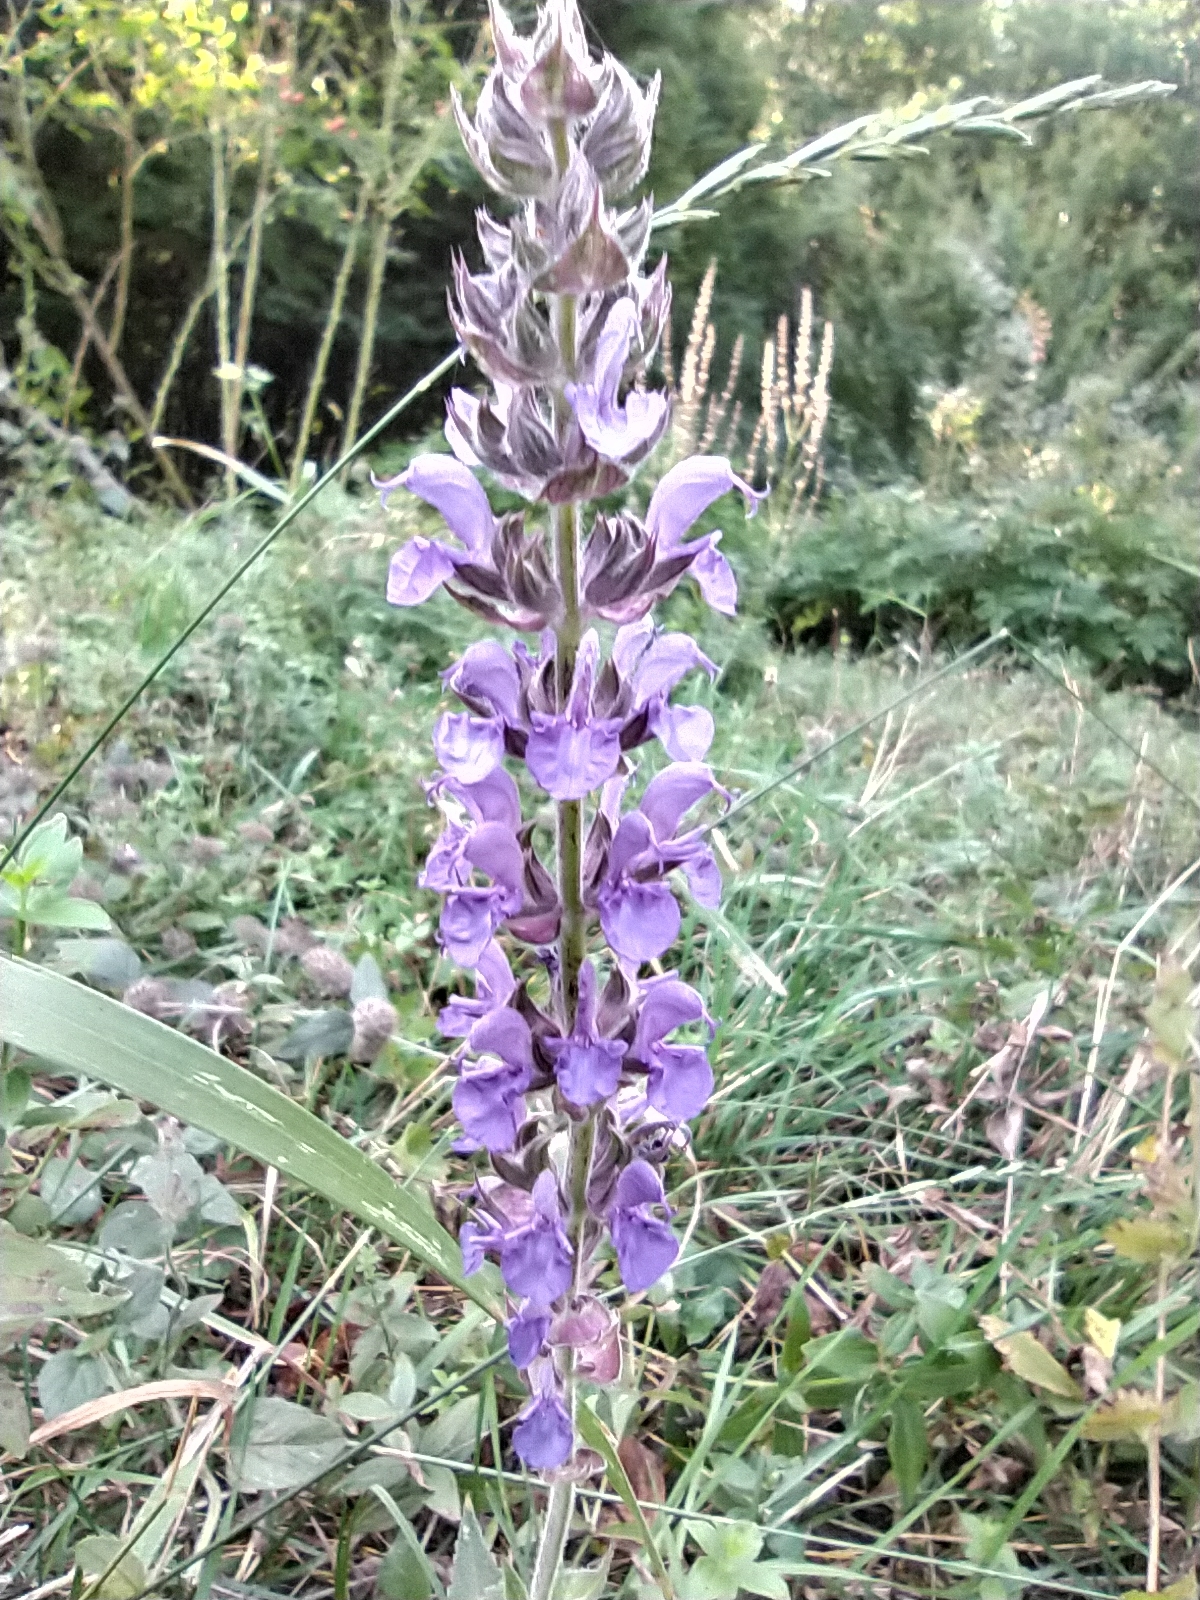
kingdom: Plantae
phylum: Tracheophyta
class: Magnoliopsida
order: Lamiales
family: Lamiaceae
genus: Salvia
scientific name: Salvia nemorosa
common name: Balkan clary
